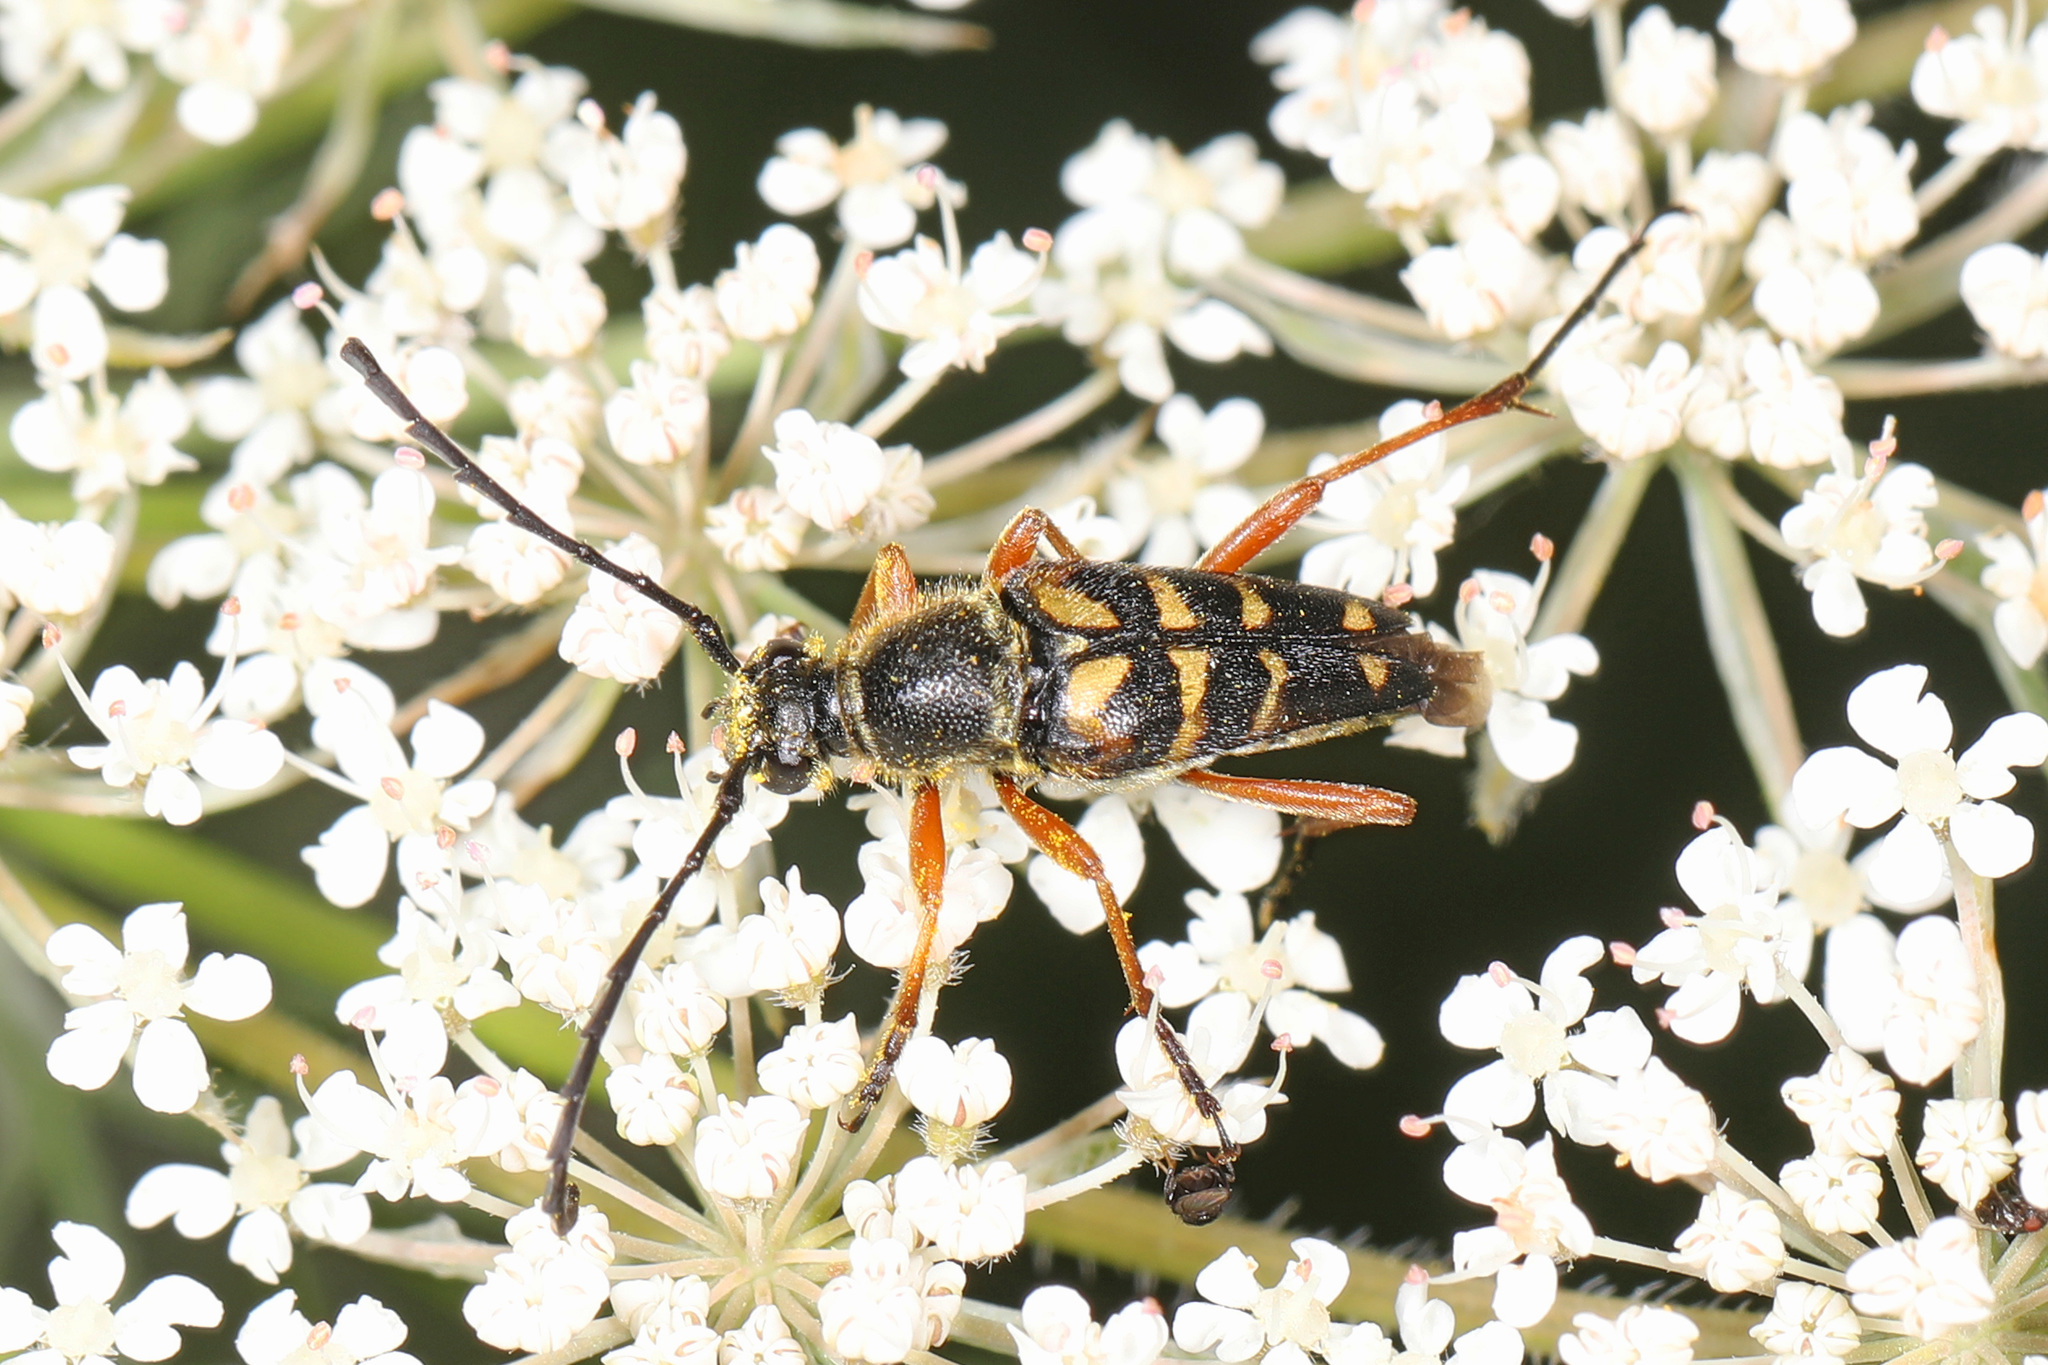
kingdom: Animalia
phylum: Arthropoda
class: Insecta
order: Coleoptera
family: Cerambycidae
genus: Typocerus
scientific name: Typocerus zebra
